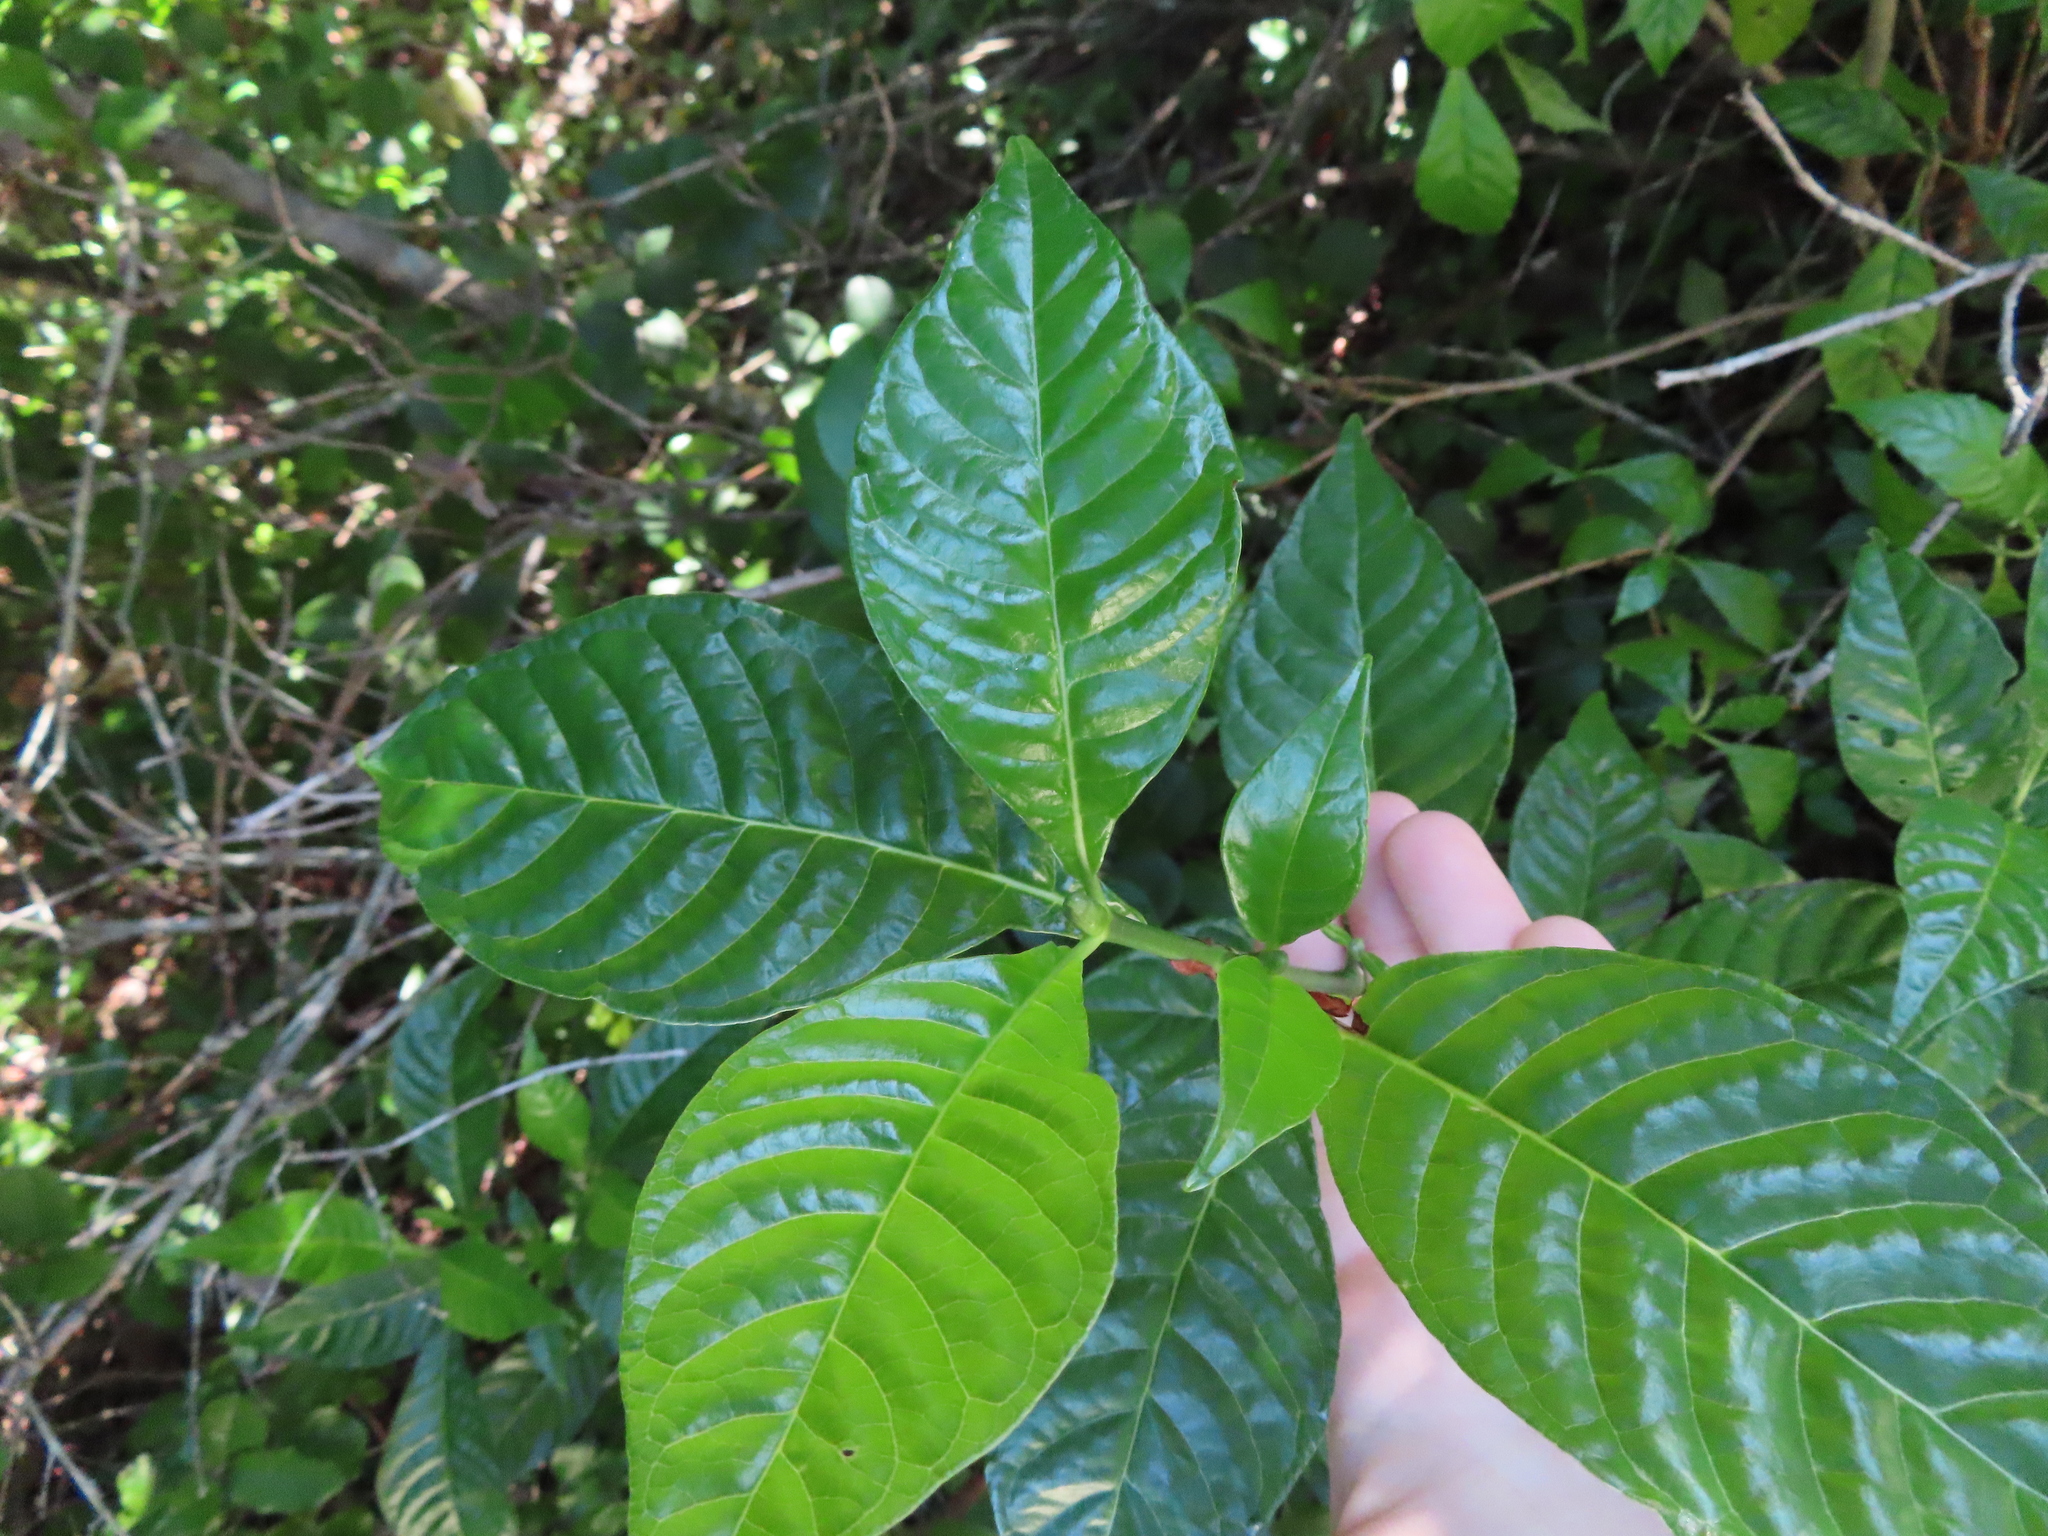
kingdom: Plantae
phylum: Tracheophyta
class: Magnoliopsida
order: Gentianales
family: Rubiaceae
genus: Psychotria
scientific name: Psychotria nervosa
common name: Bastard cankerberry
